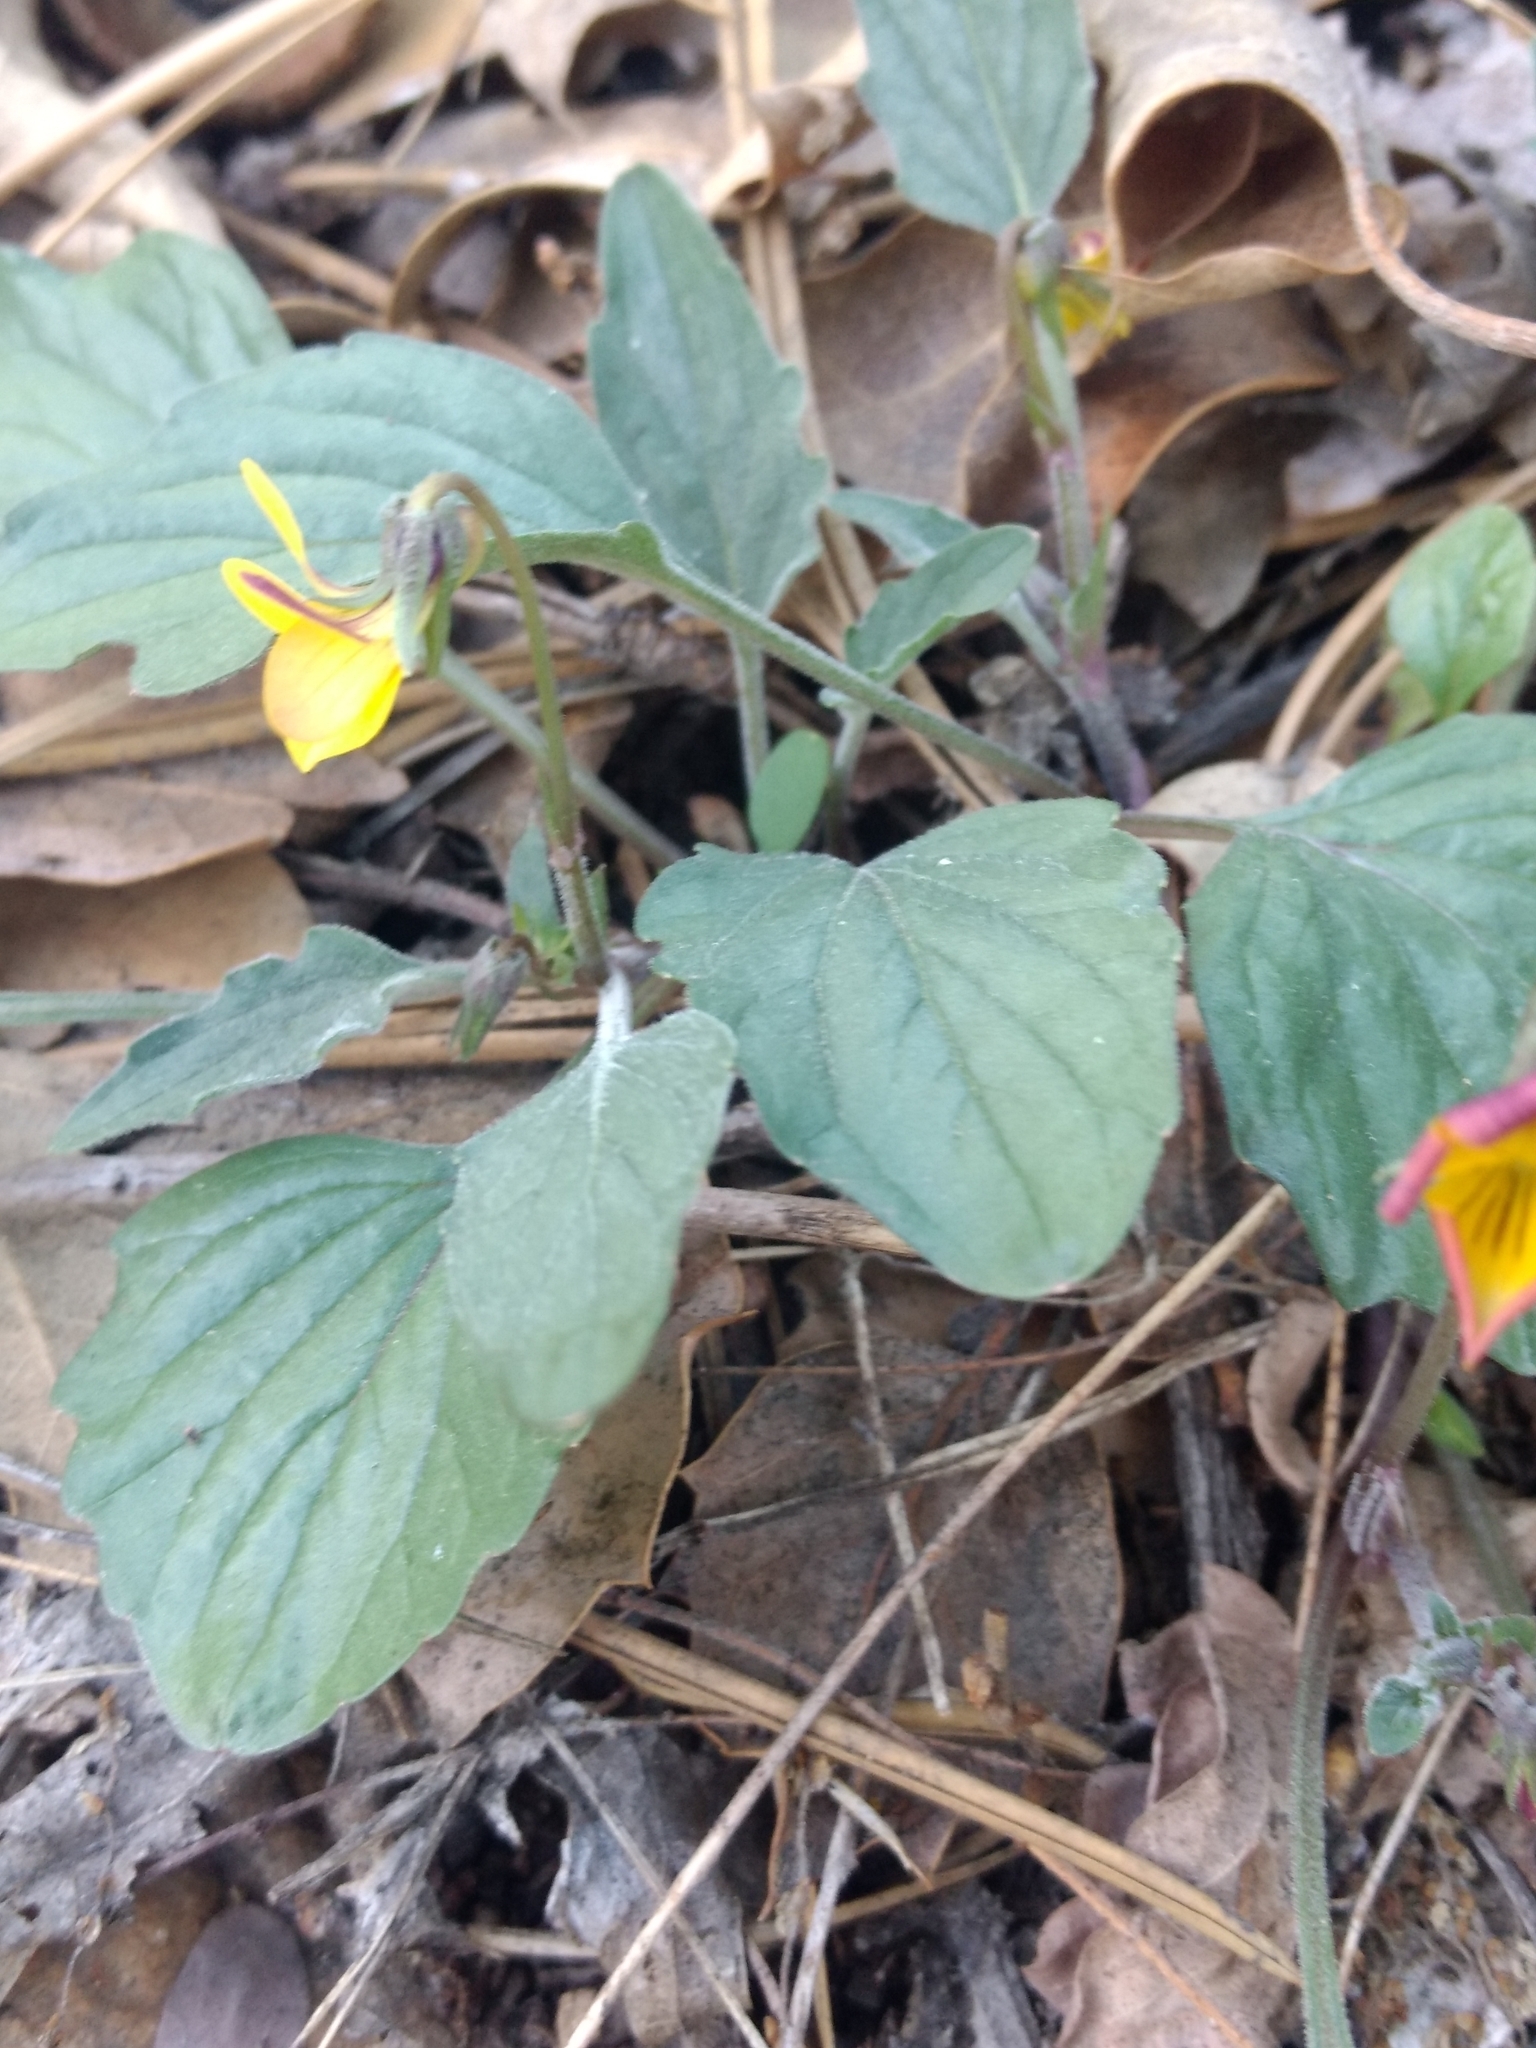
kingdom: Plantae
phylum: Tracheophyta
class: Magnoliopsida
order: Malpighiales
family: Violaceae
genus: Viola
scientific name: Viola purpurea
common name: Pine violet
